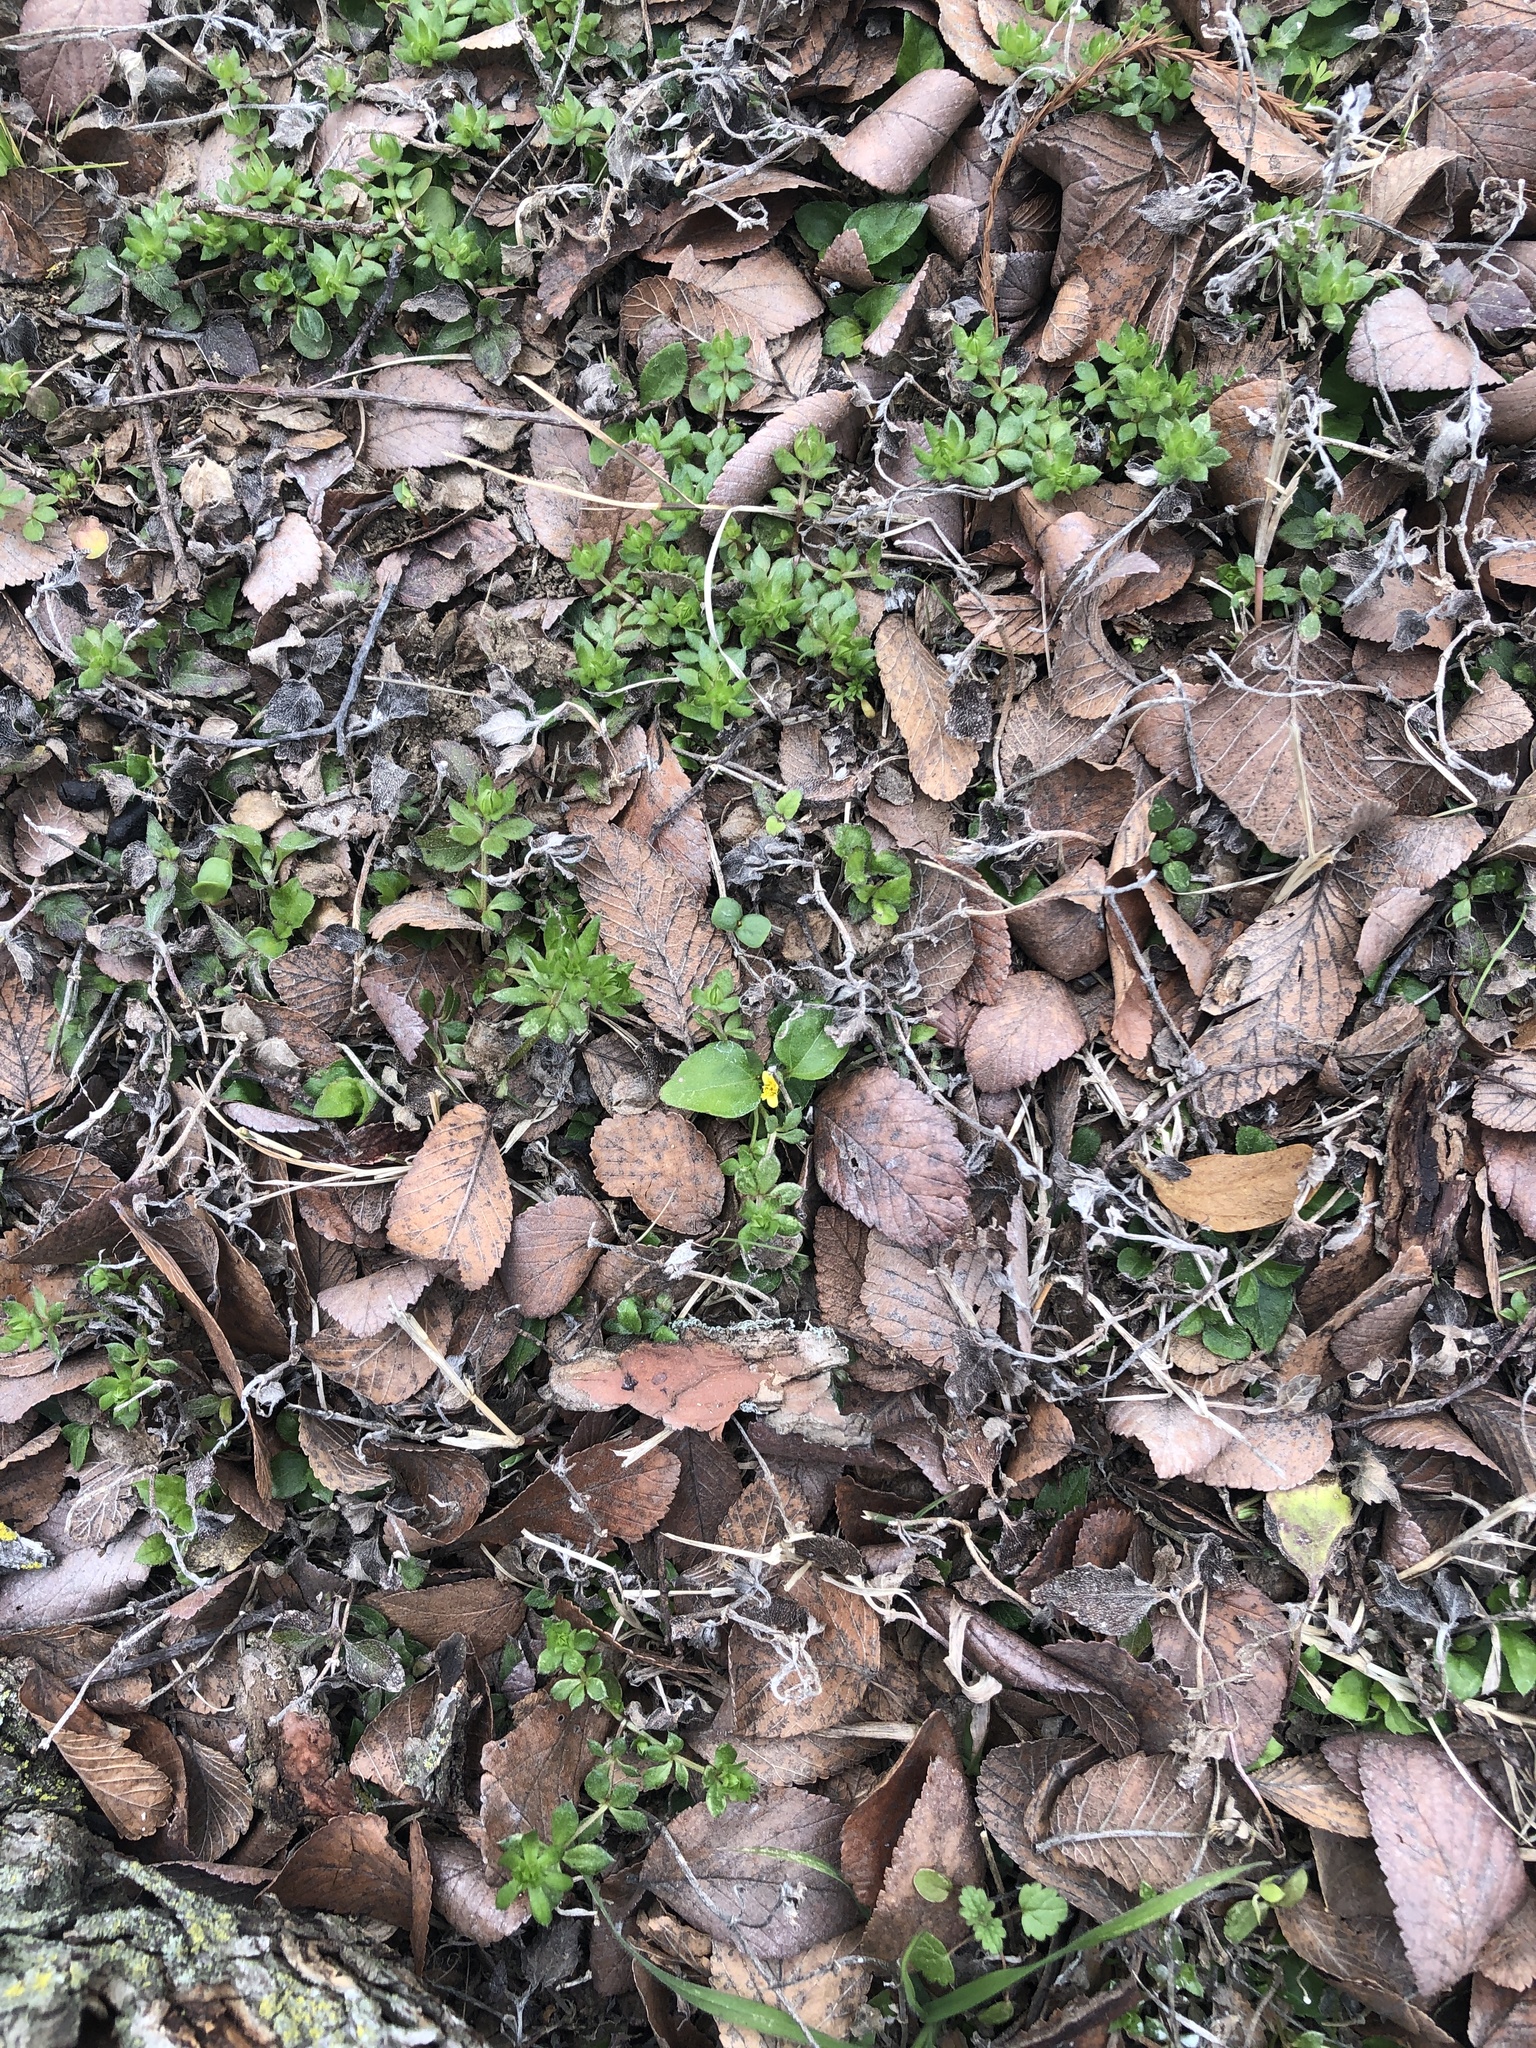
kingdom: Plantae
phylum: Tracheophyta
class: Magnoliopsida
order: Asterales
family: Asteraceae
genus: Calyptocarpus
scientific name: Calyptocarpus vialis
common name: Straggler daisy
